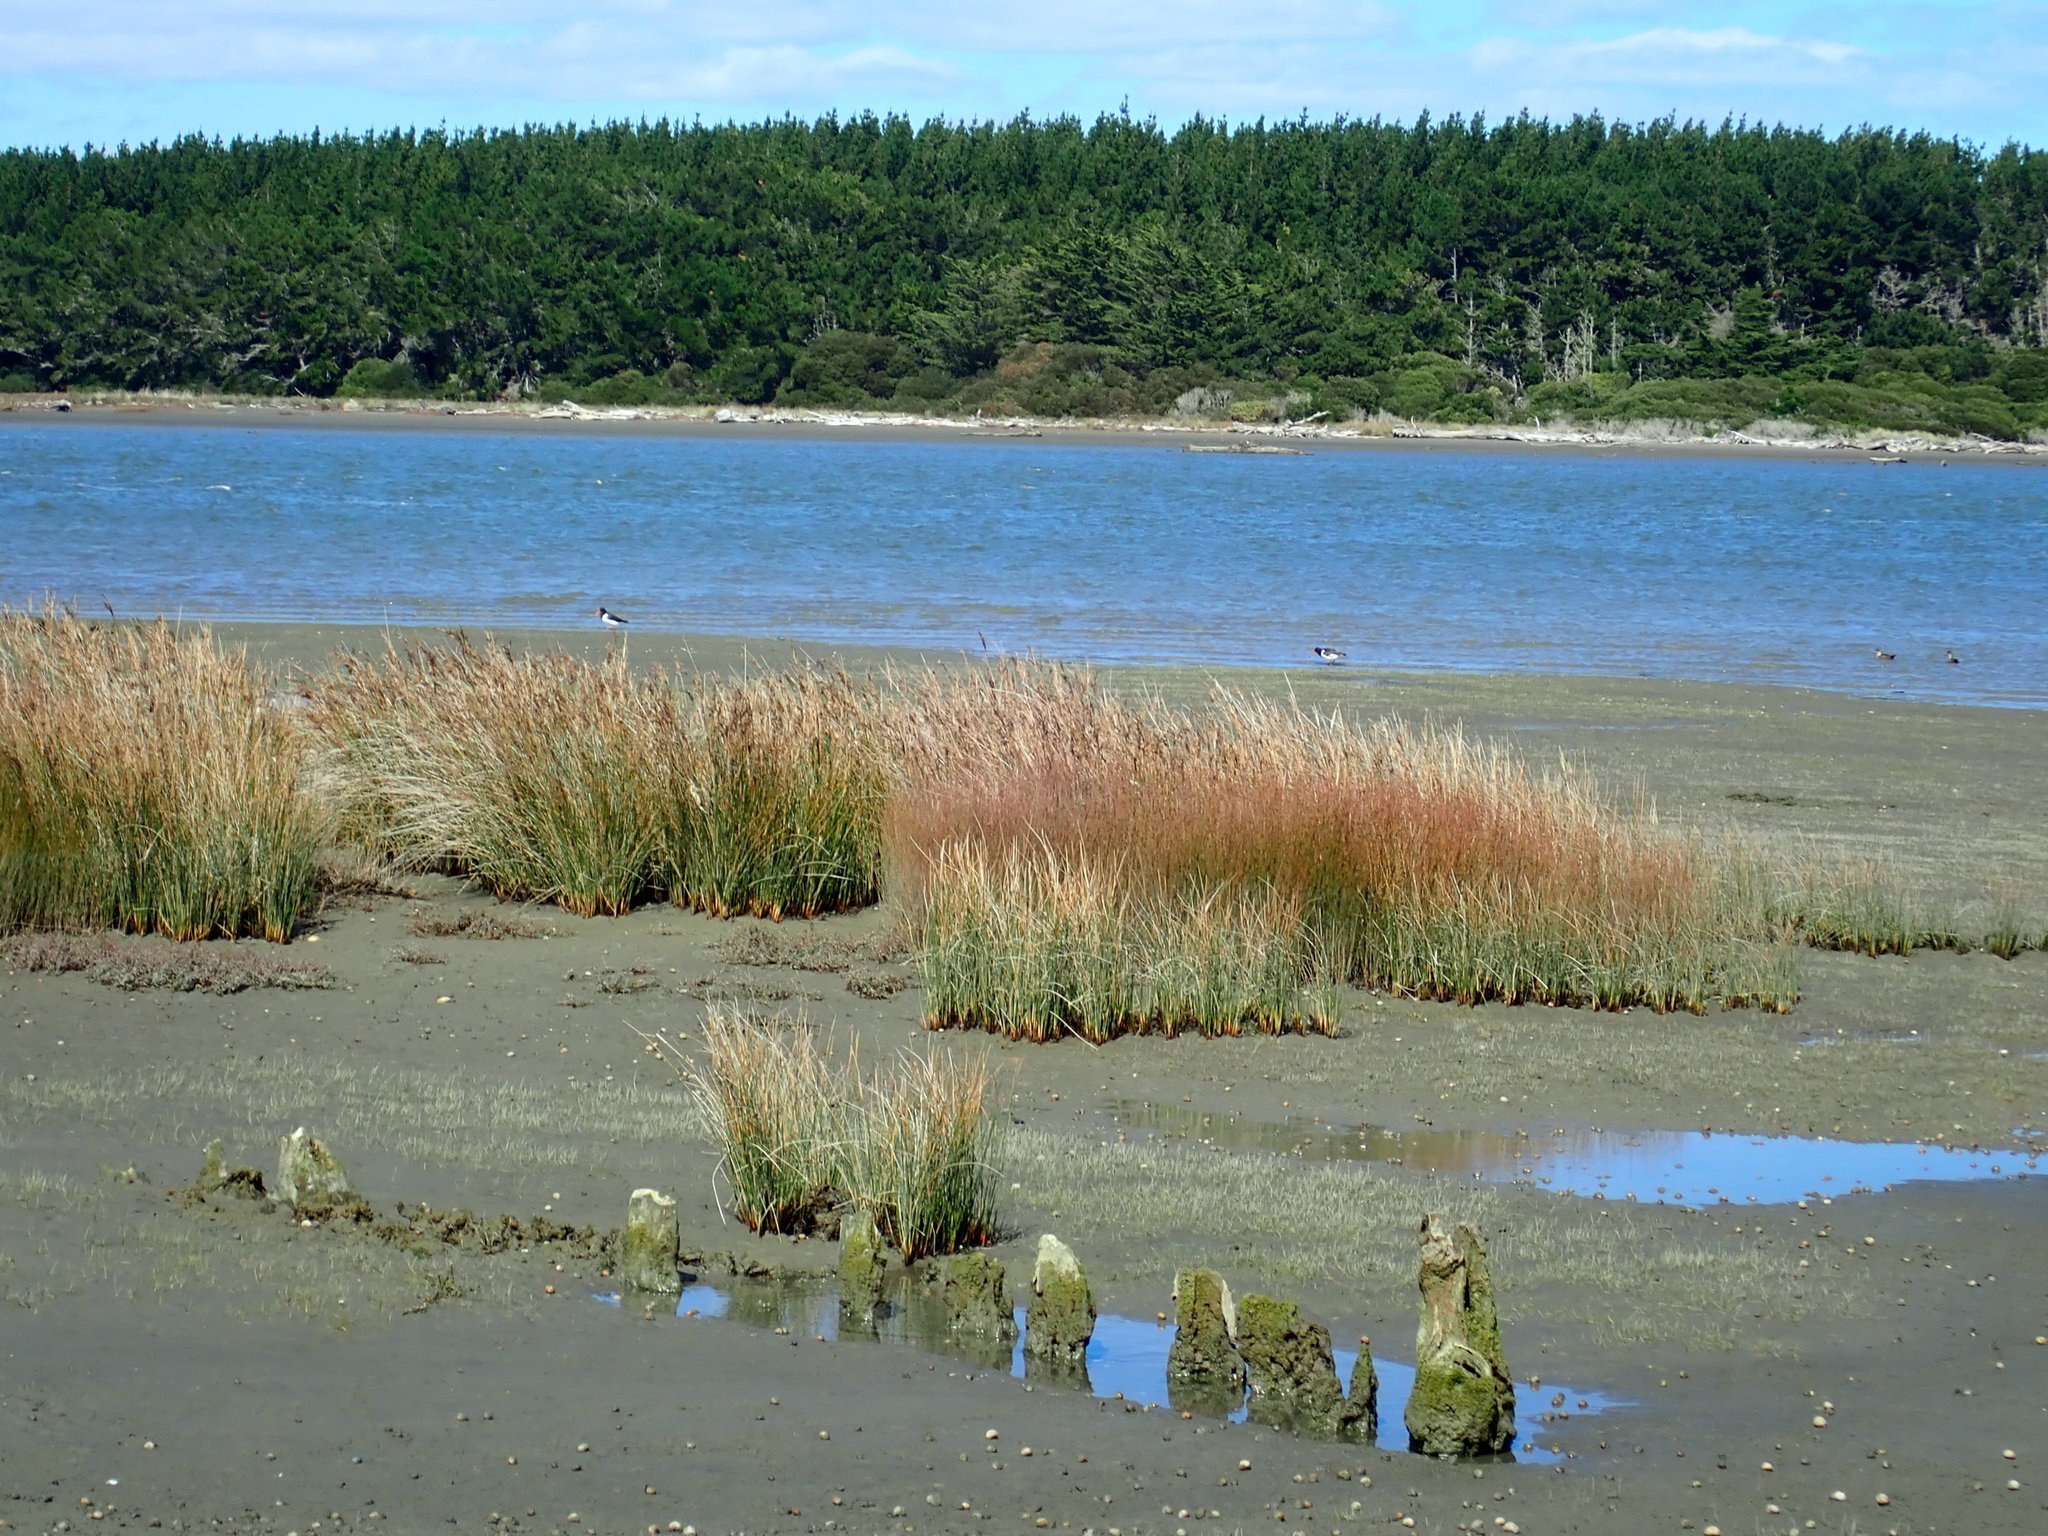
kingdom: Animalia
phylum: Chordata
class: Aves
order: Charadriiformes
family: Haematopodidae
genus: Haematopus
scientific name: Haematopus finschi
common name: South island oystercatcher
